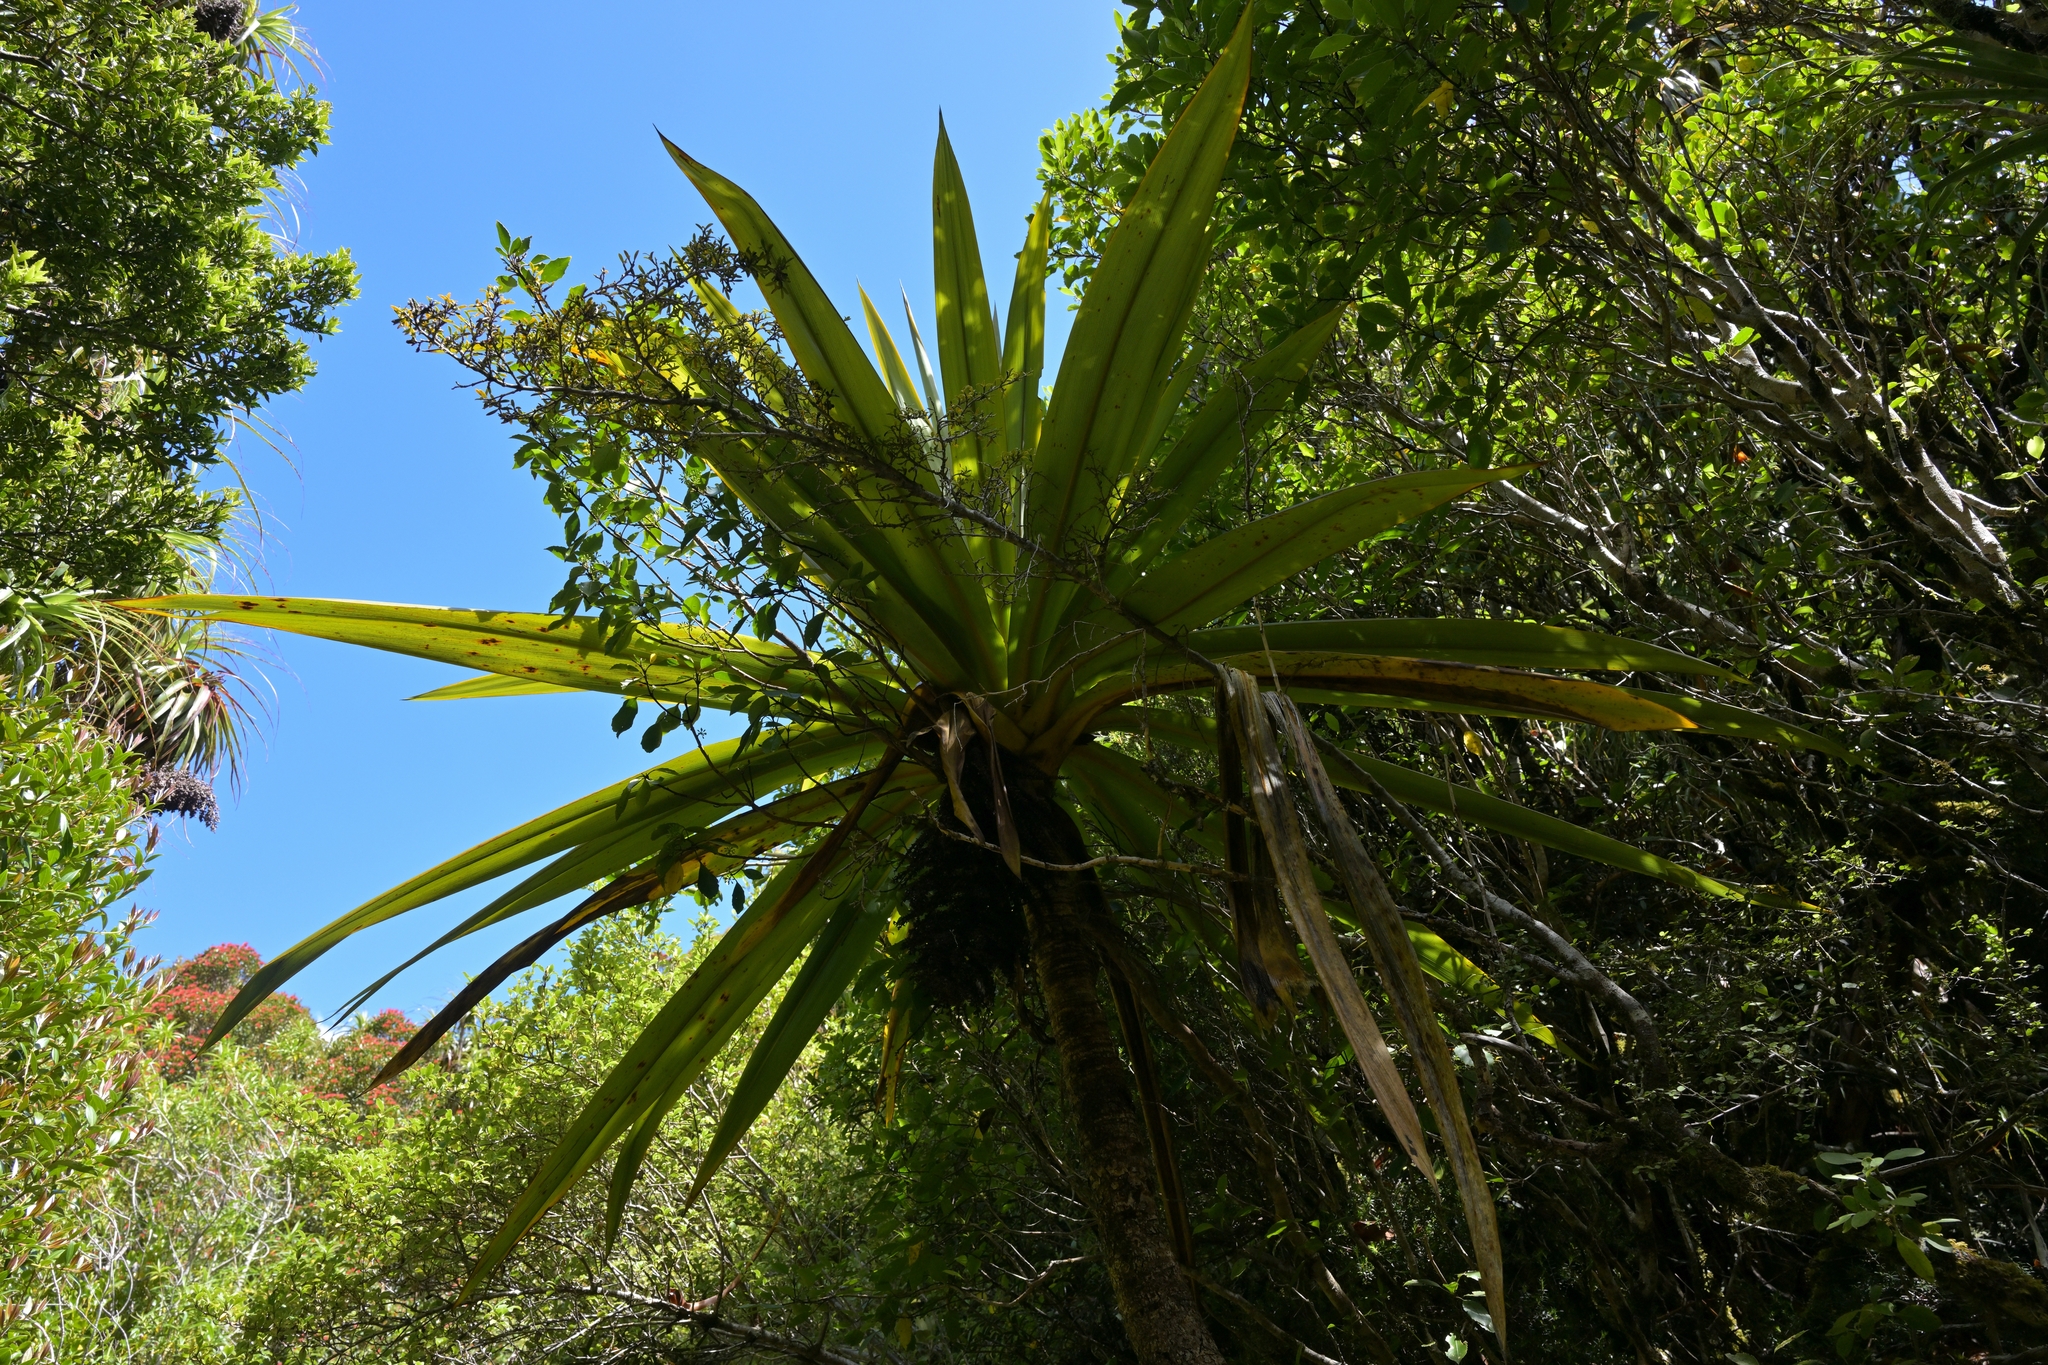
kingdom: Plantae
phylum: Tracheophyta
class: Liliopsida
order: Asparagales
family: Asparagaceae
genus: Cordyline
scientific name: Cordyline indivisa
